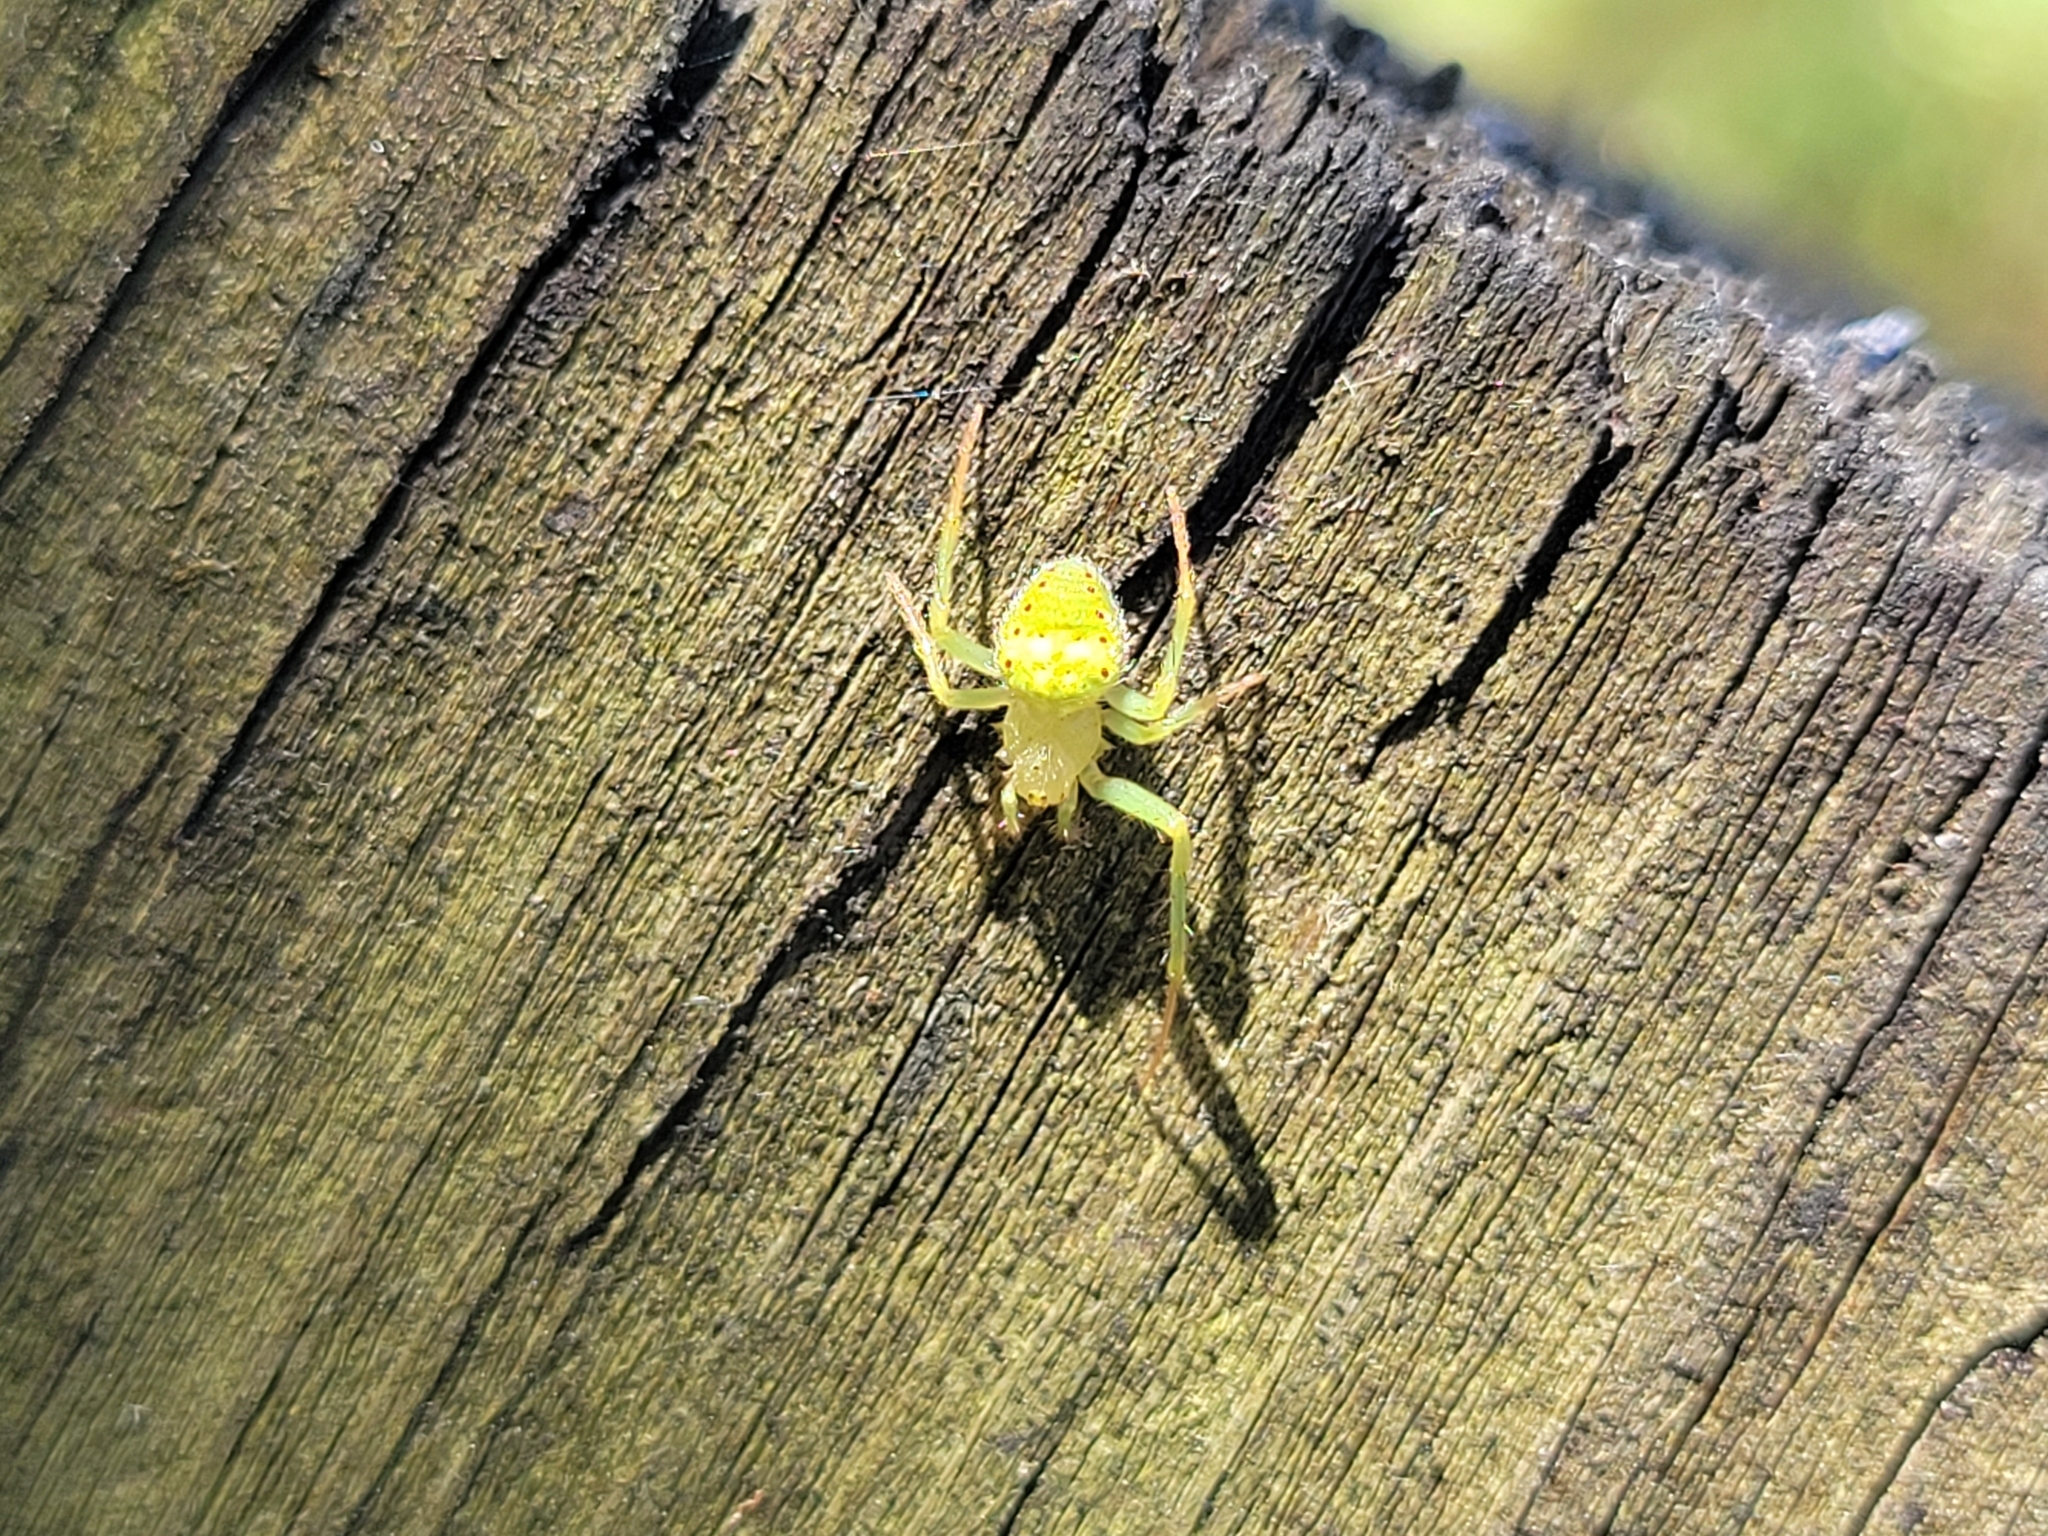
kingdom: Animalia
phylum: Arthropoda
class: Arachnida
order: Araneae
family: Araneidae
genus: Araneus
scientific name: Araneus cingulatus
